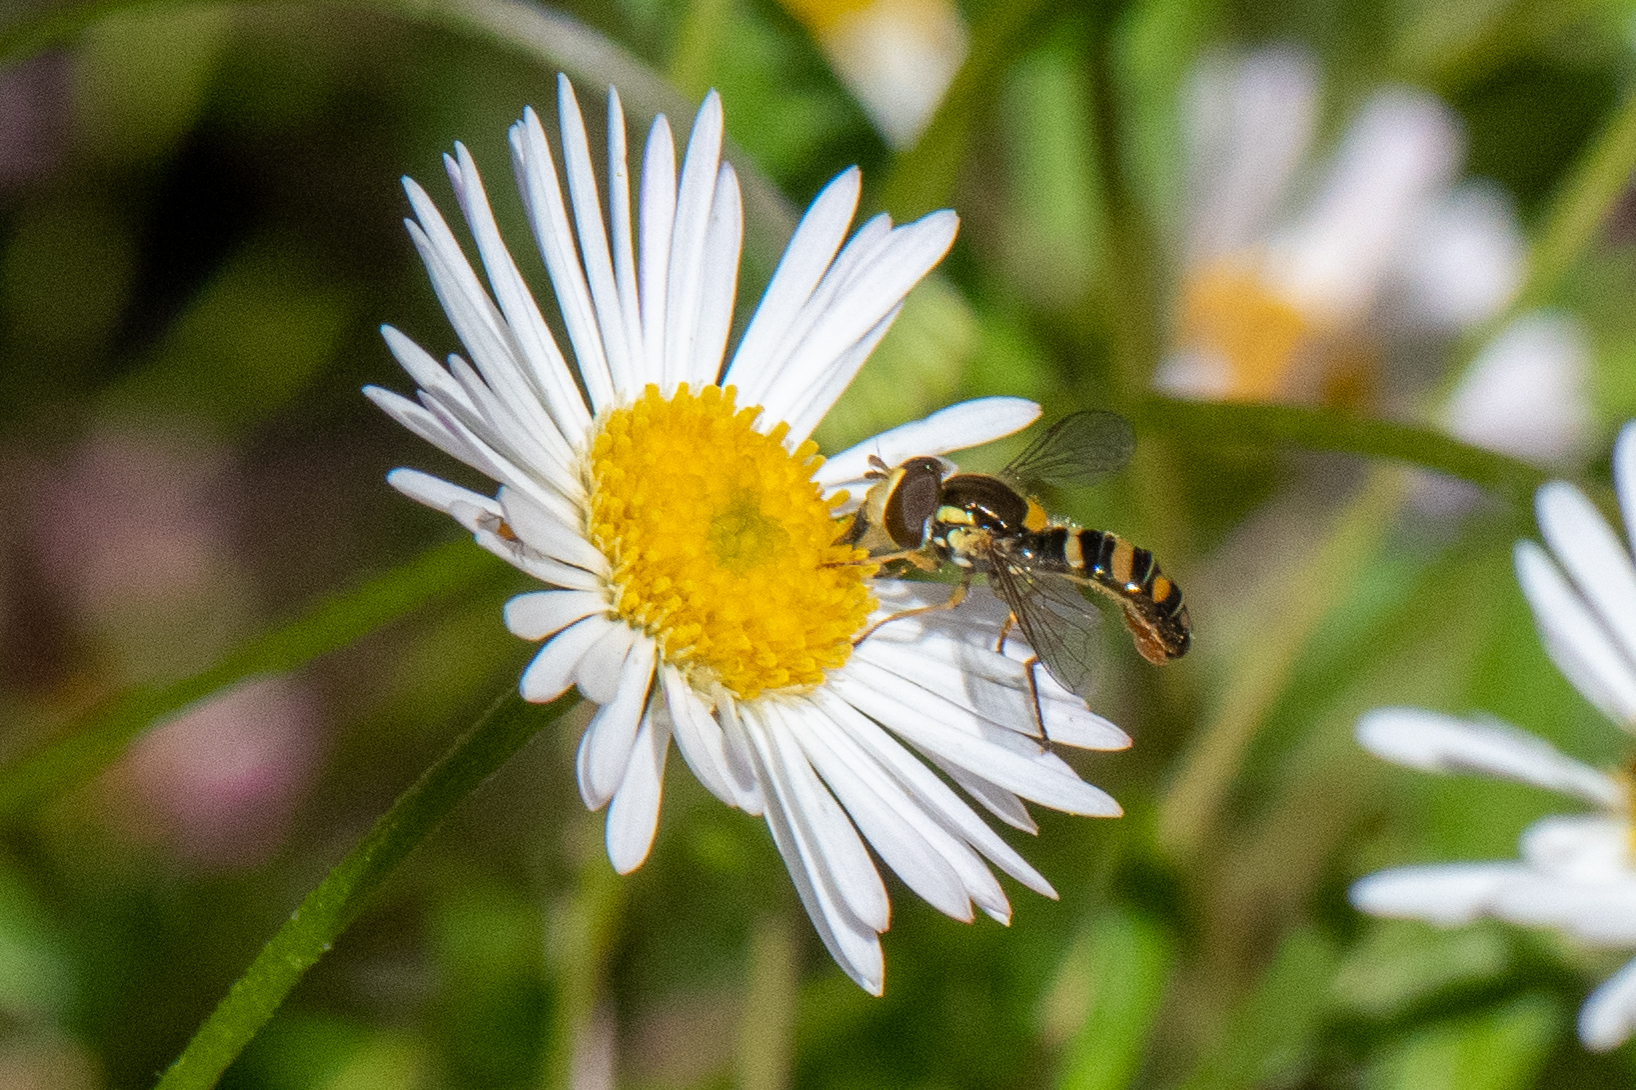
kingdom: Animalia
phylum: Arthropoda
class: Insecta
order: Diptera
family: Syrphidae
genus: Sphaerophoria
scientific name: Sphaerophoria sulphuripes
